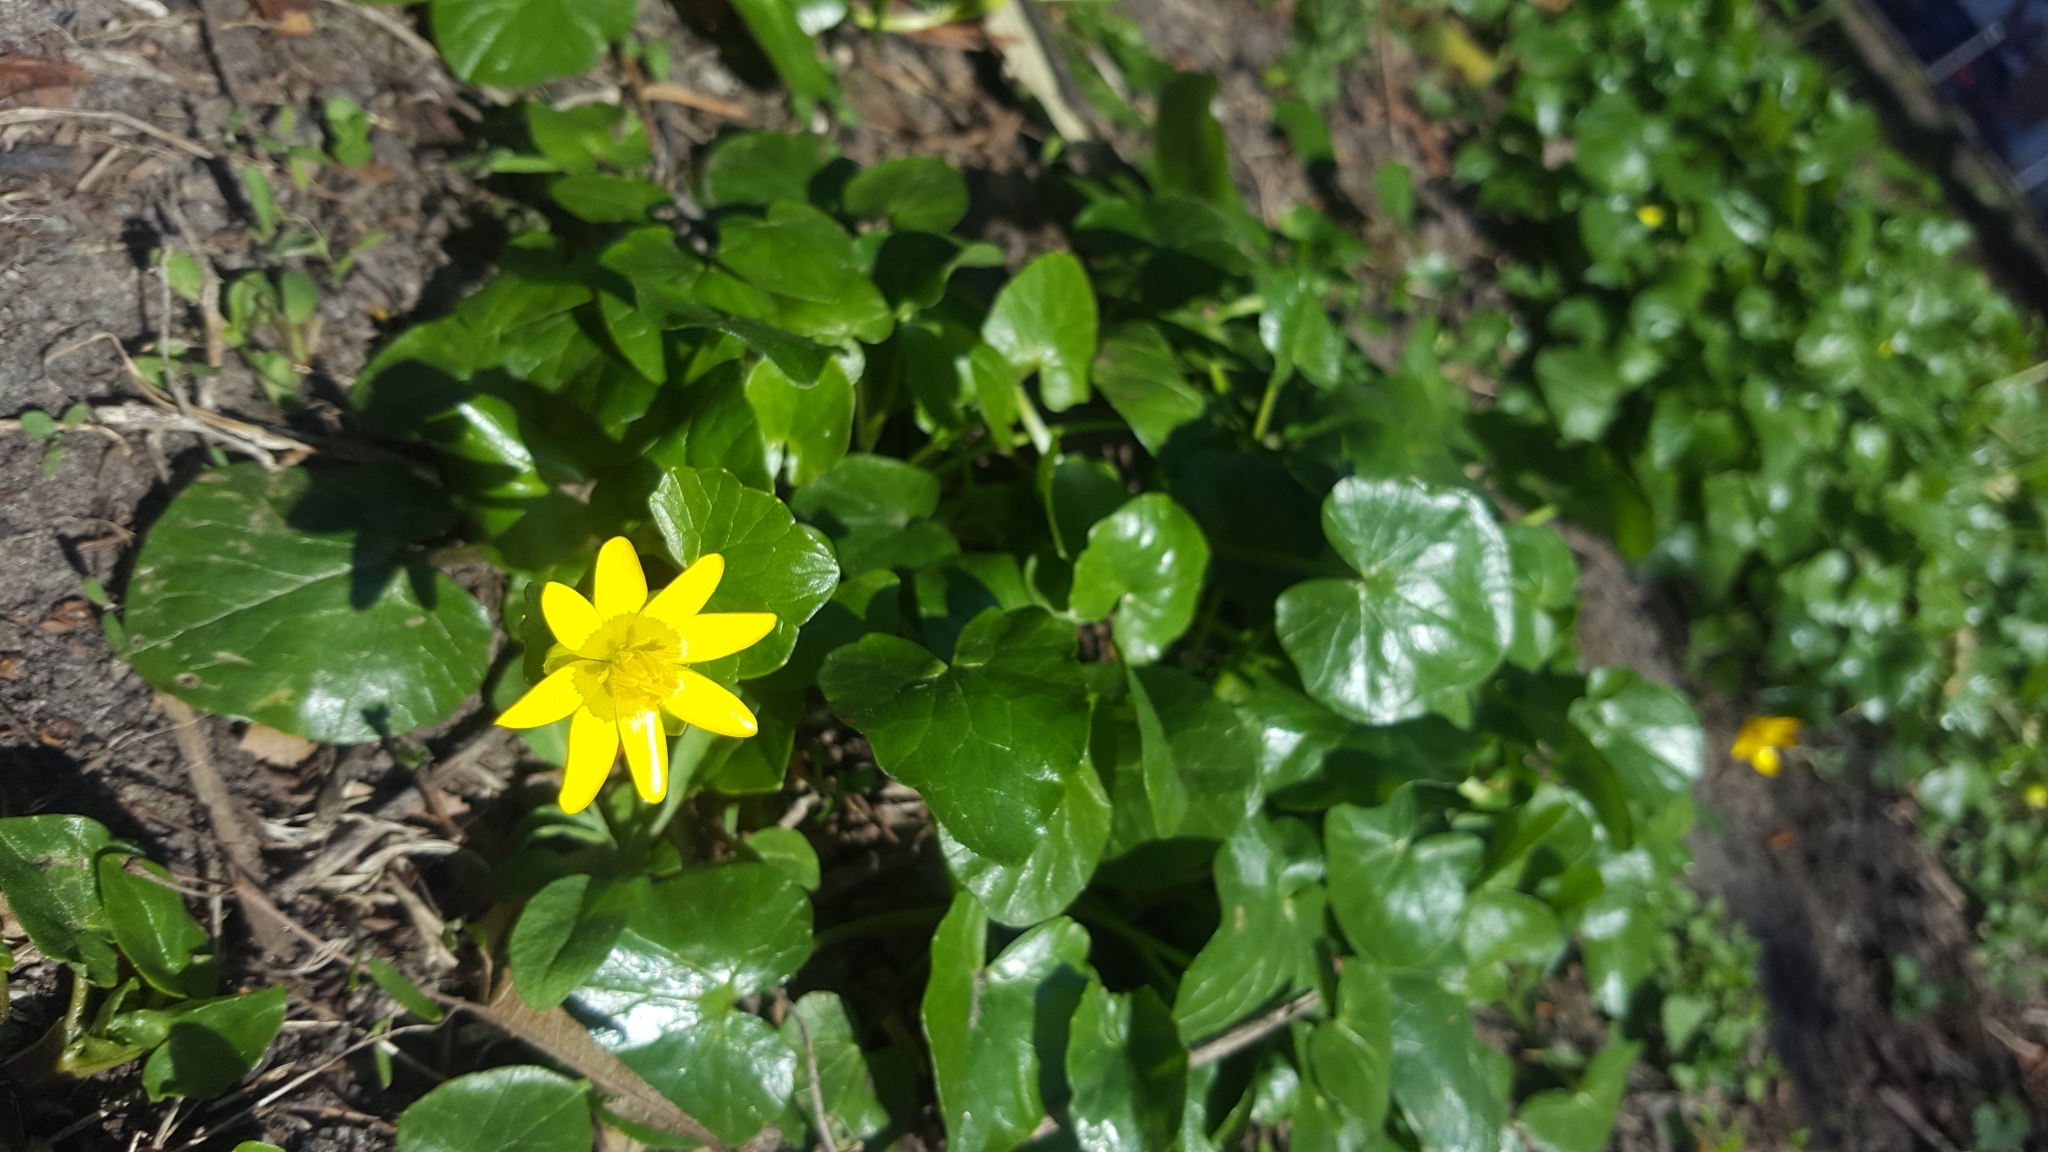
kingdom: Plantae
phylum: Tracheophyta
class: Magnoliopsida
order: Ranunculales
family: Ranunculaceae
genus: Ficaria
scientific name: Ficaria verna
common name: Lesser celandine
